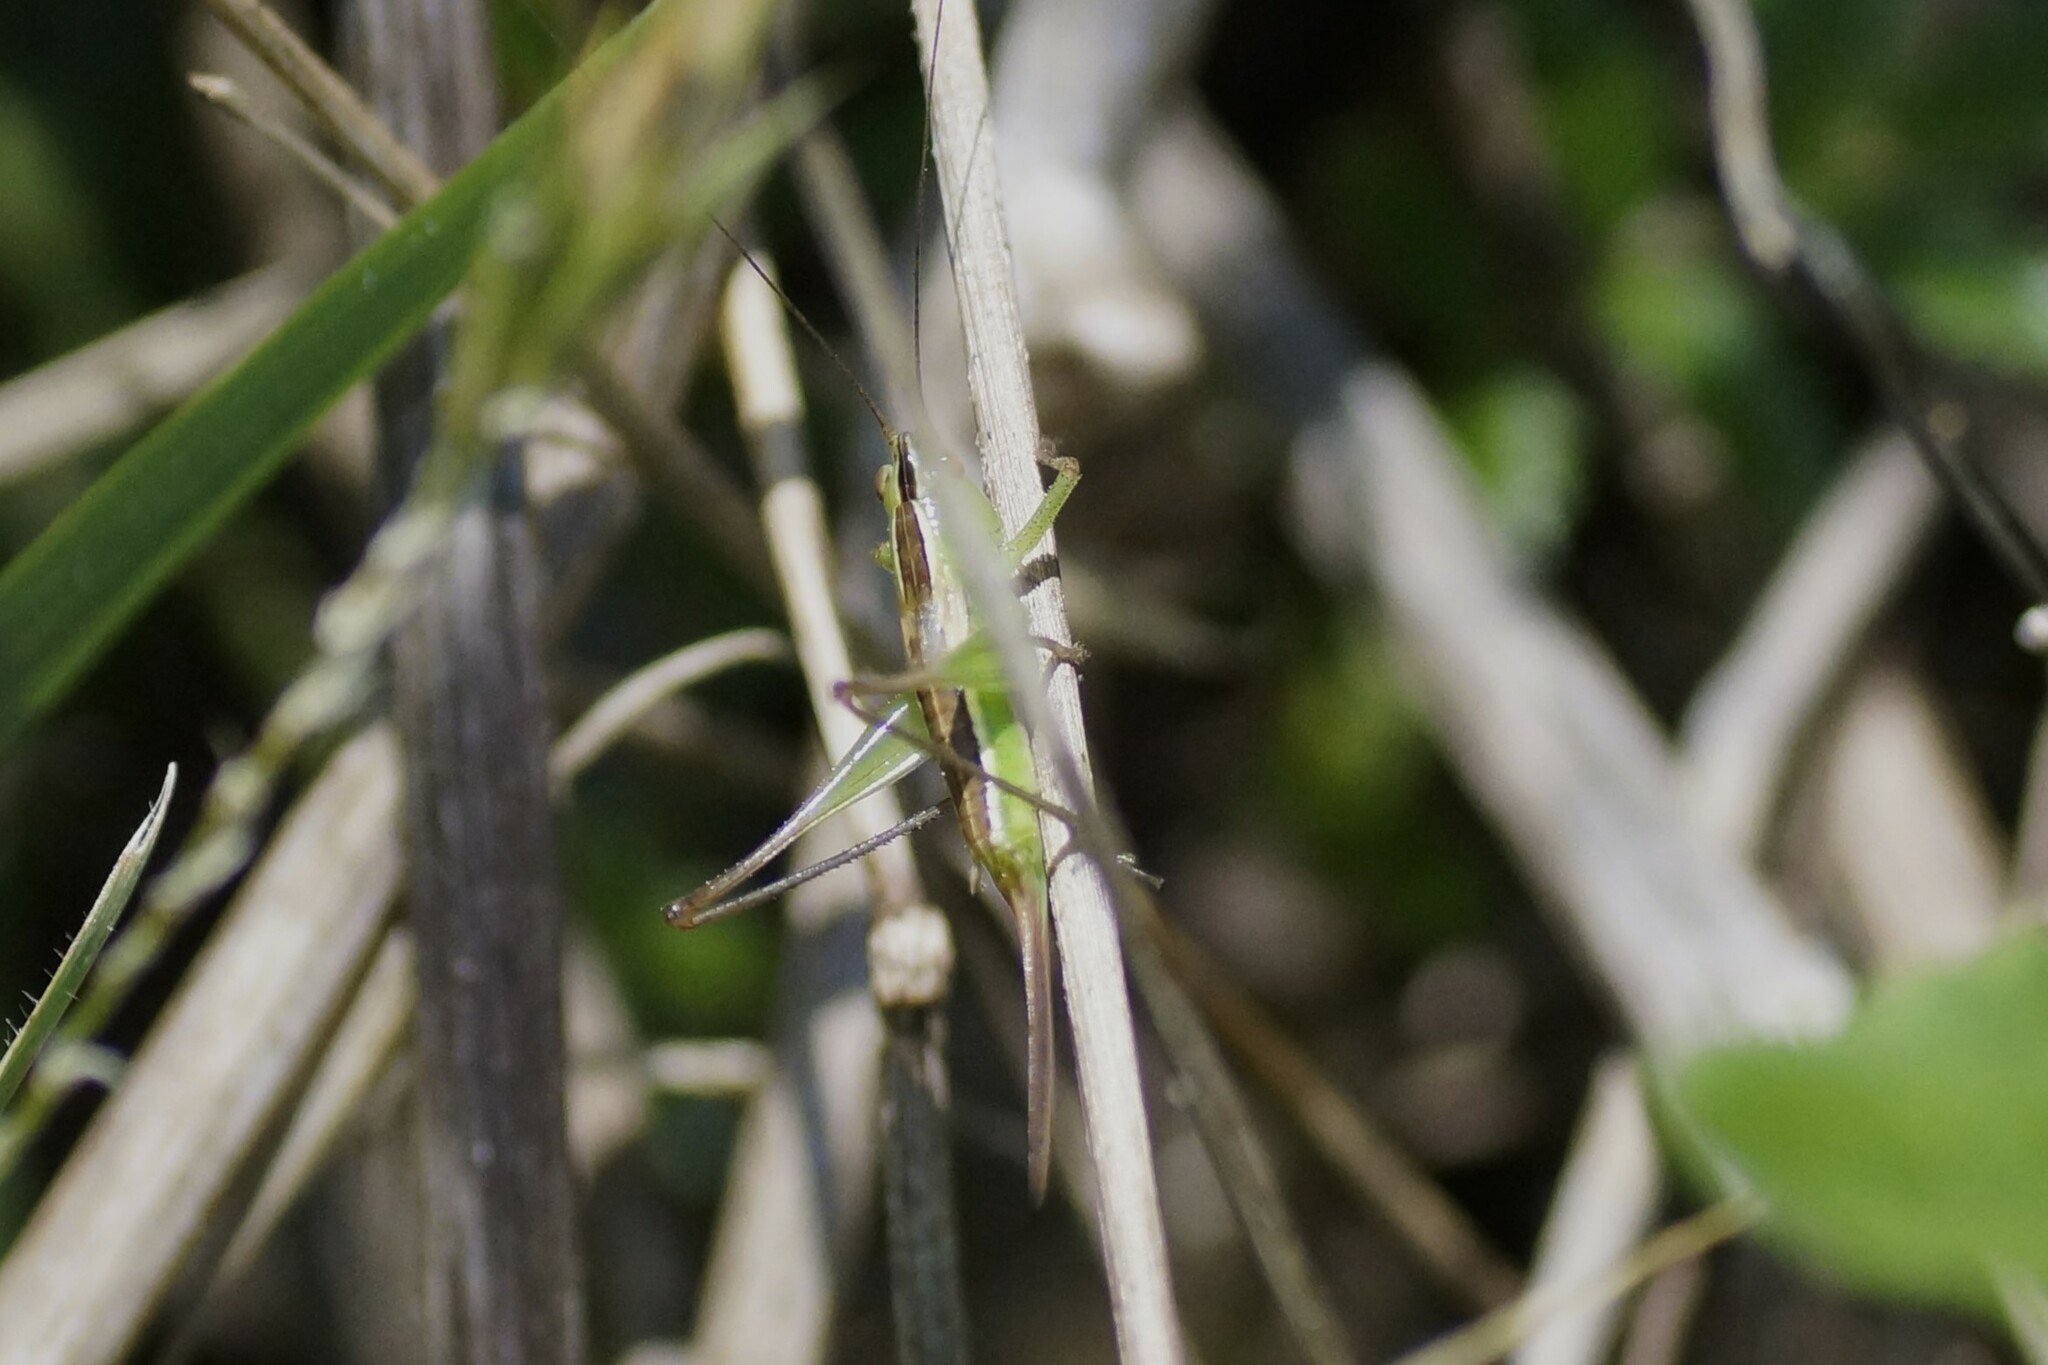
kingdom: Animalia
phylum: Arthropoda
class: Insecta
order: Orthoptera
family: Tettigoniidae
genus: Conocephalus
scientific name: Conocephalus bilineatus
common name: Small meadow katydid
